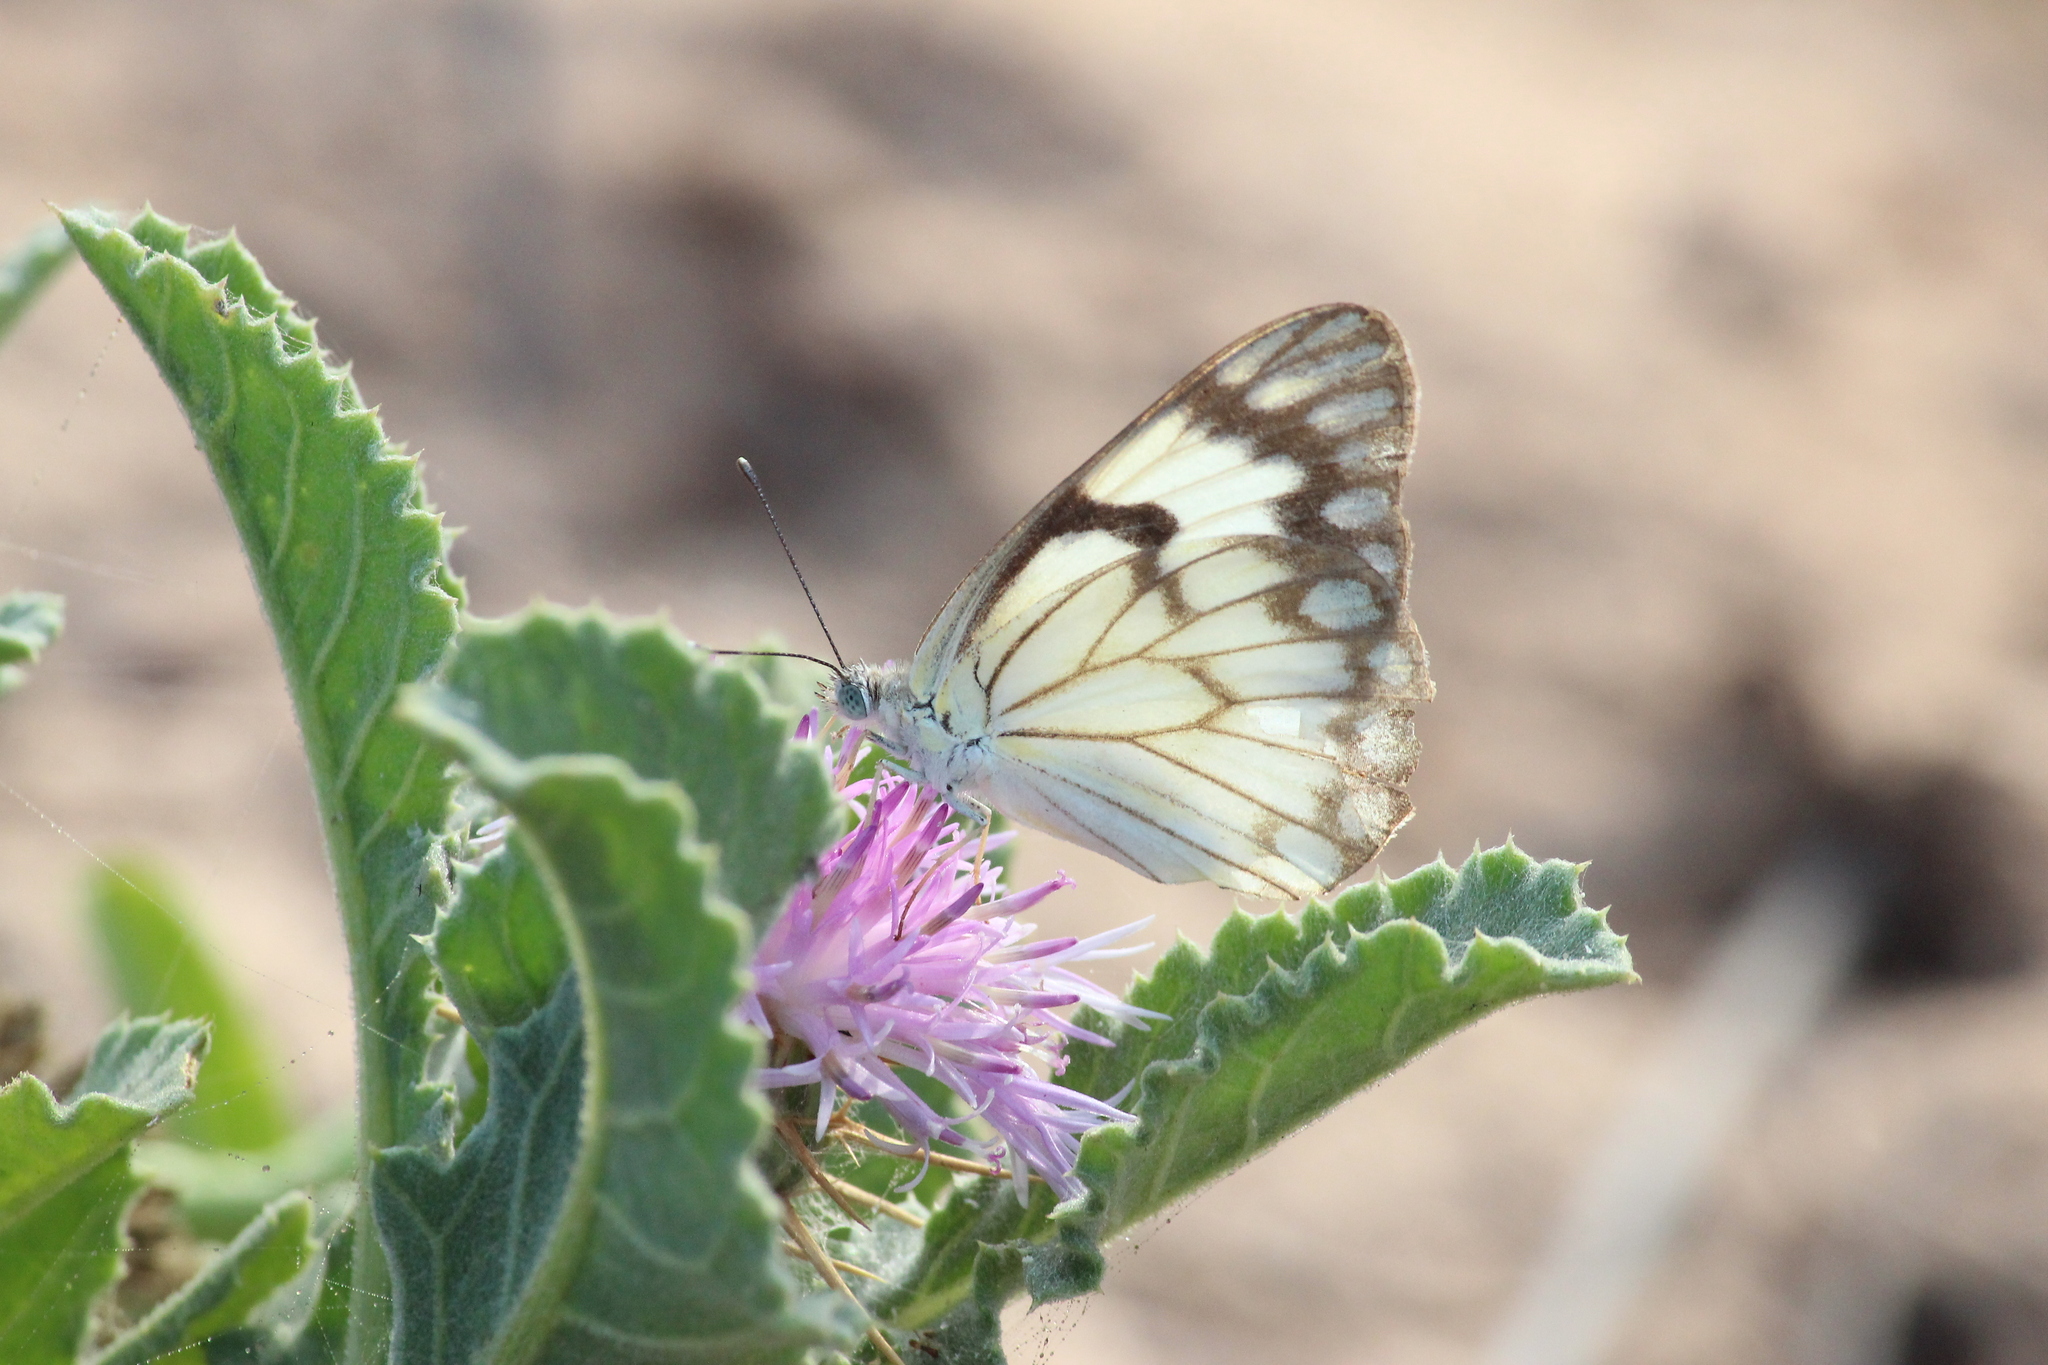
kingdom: Animalia
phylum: Arthropoda
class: Insecta
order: Lepidoptera
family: Pieridae
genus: Belenois
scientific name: Belenois aurota
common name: Brown-veined white
